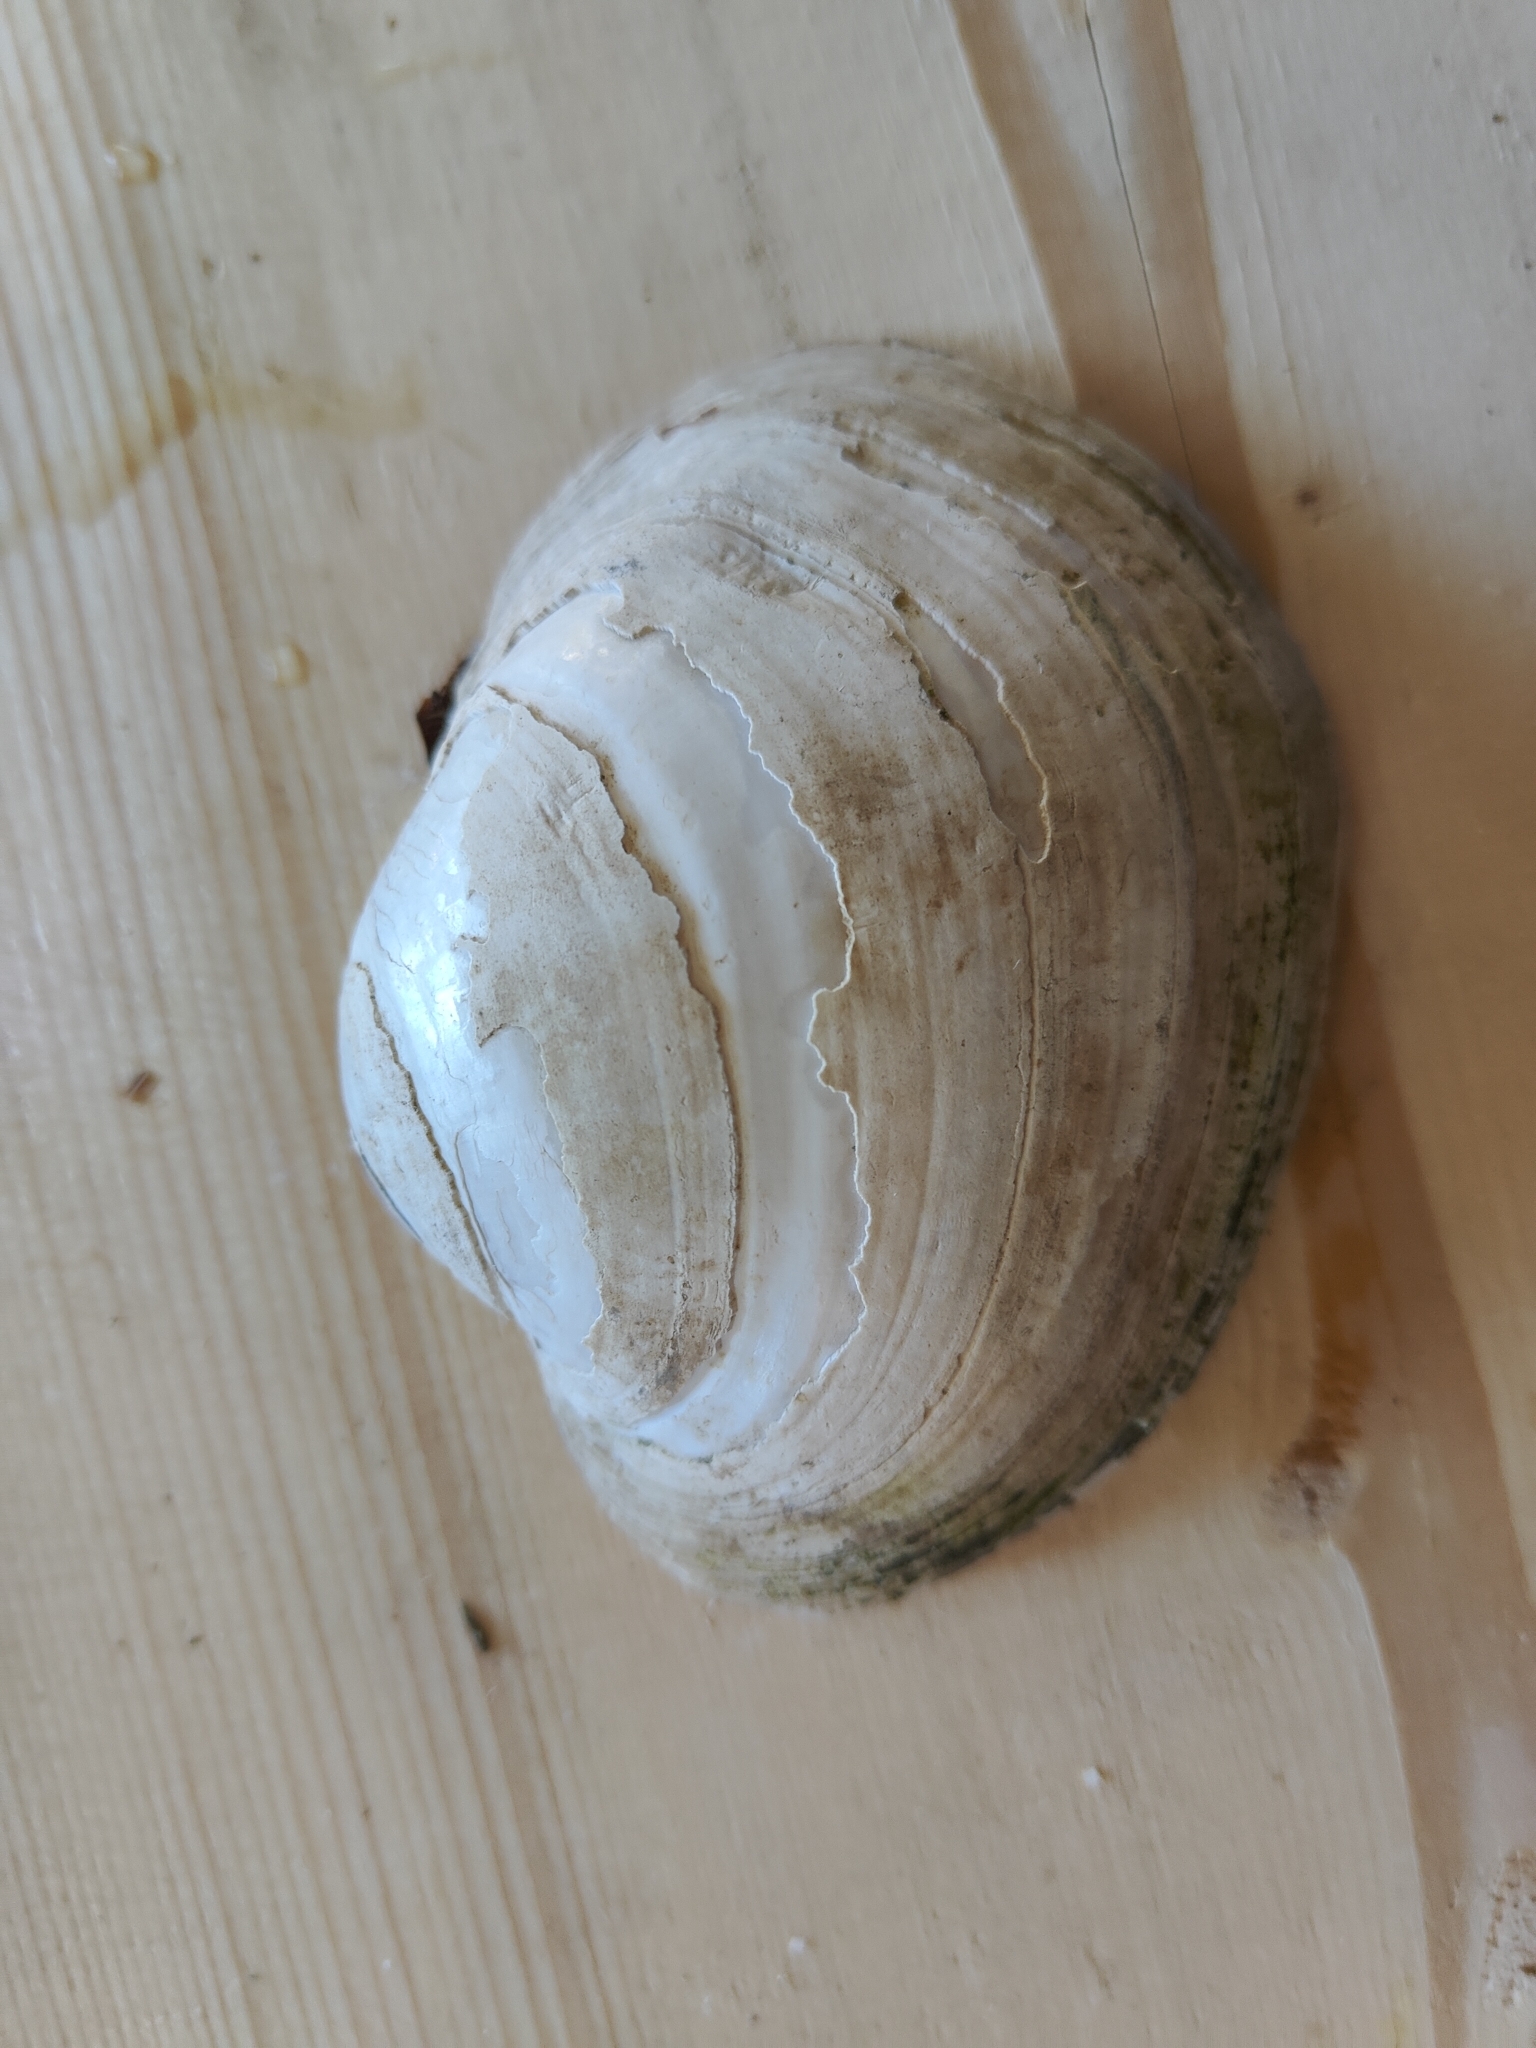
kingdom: Animalia
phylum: Mollusca
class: Bivalvia
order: Unionida
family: Unionidae
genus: Lampsilis
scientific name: Lampsilis cardium
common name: Plain pocketbook
